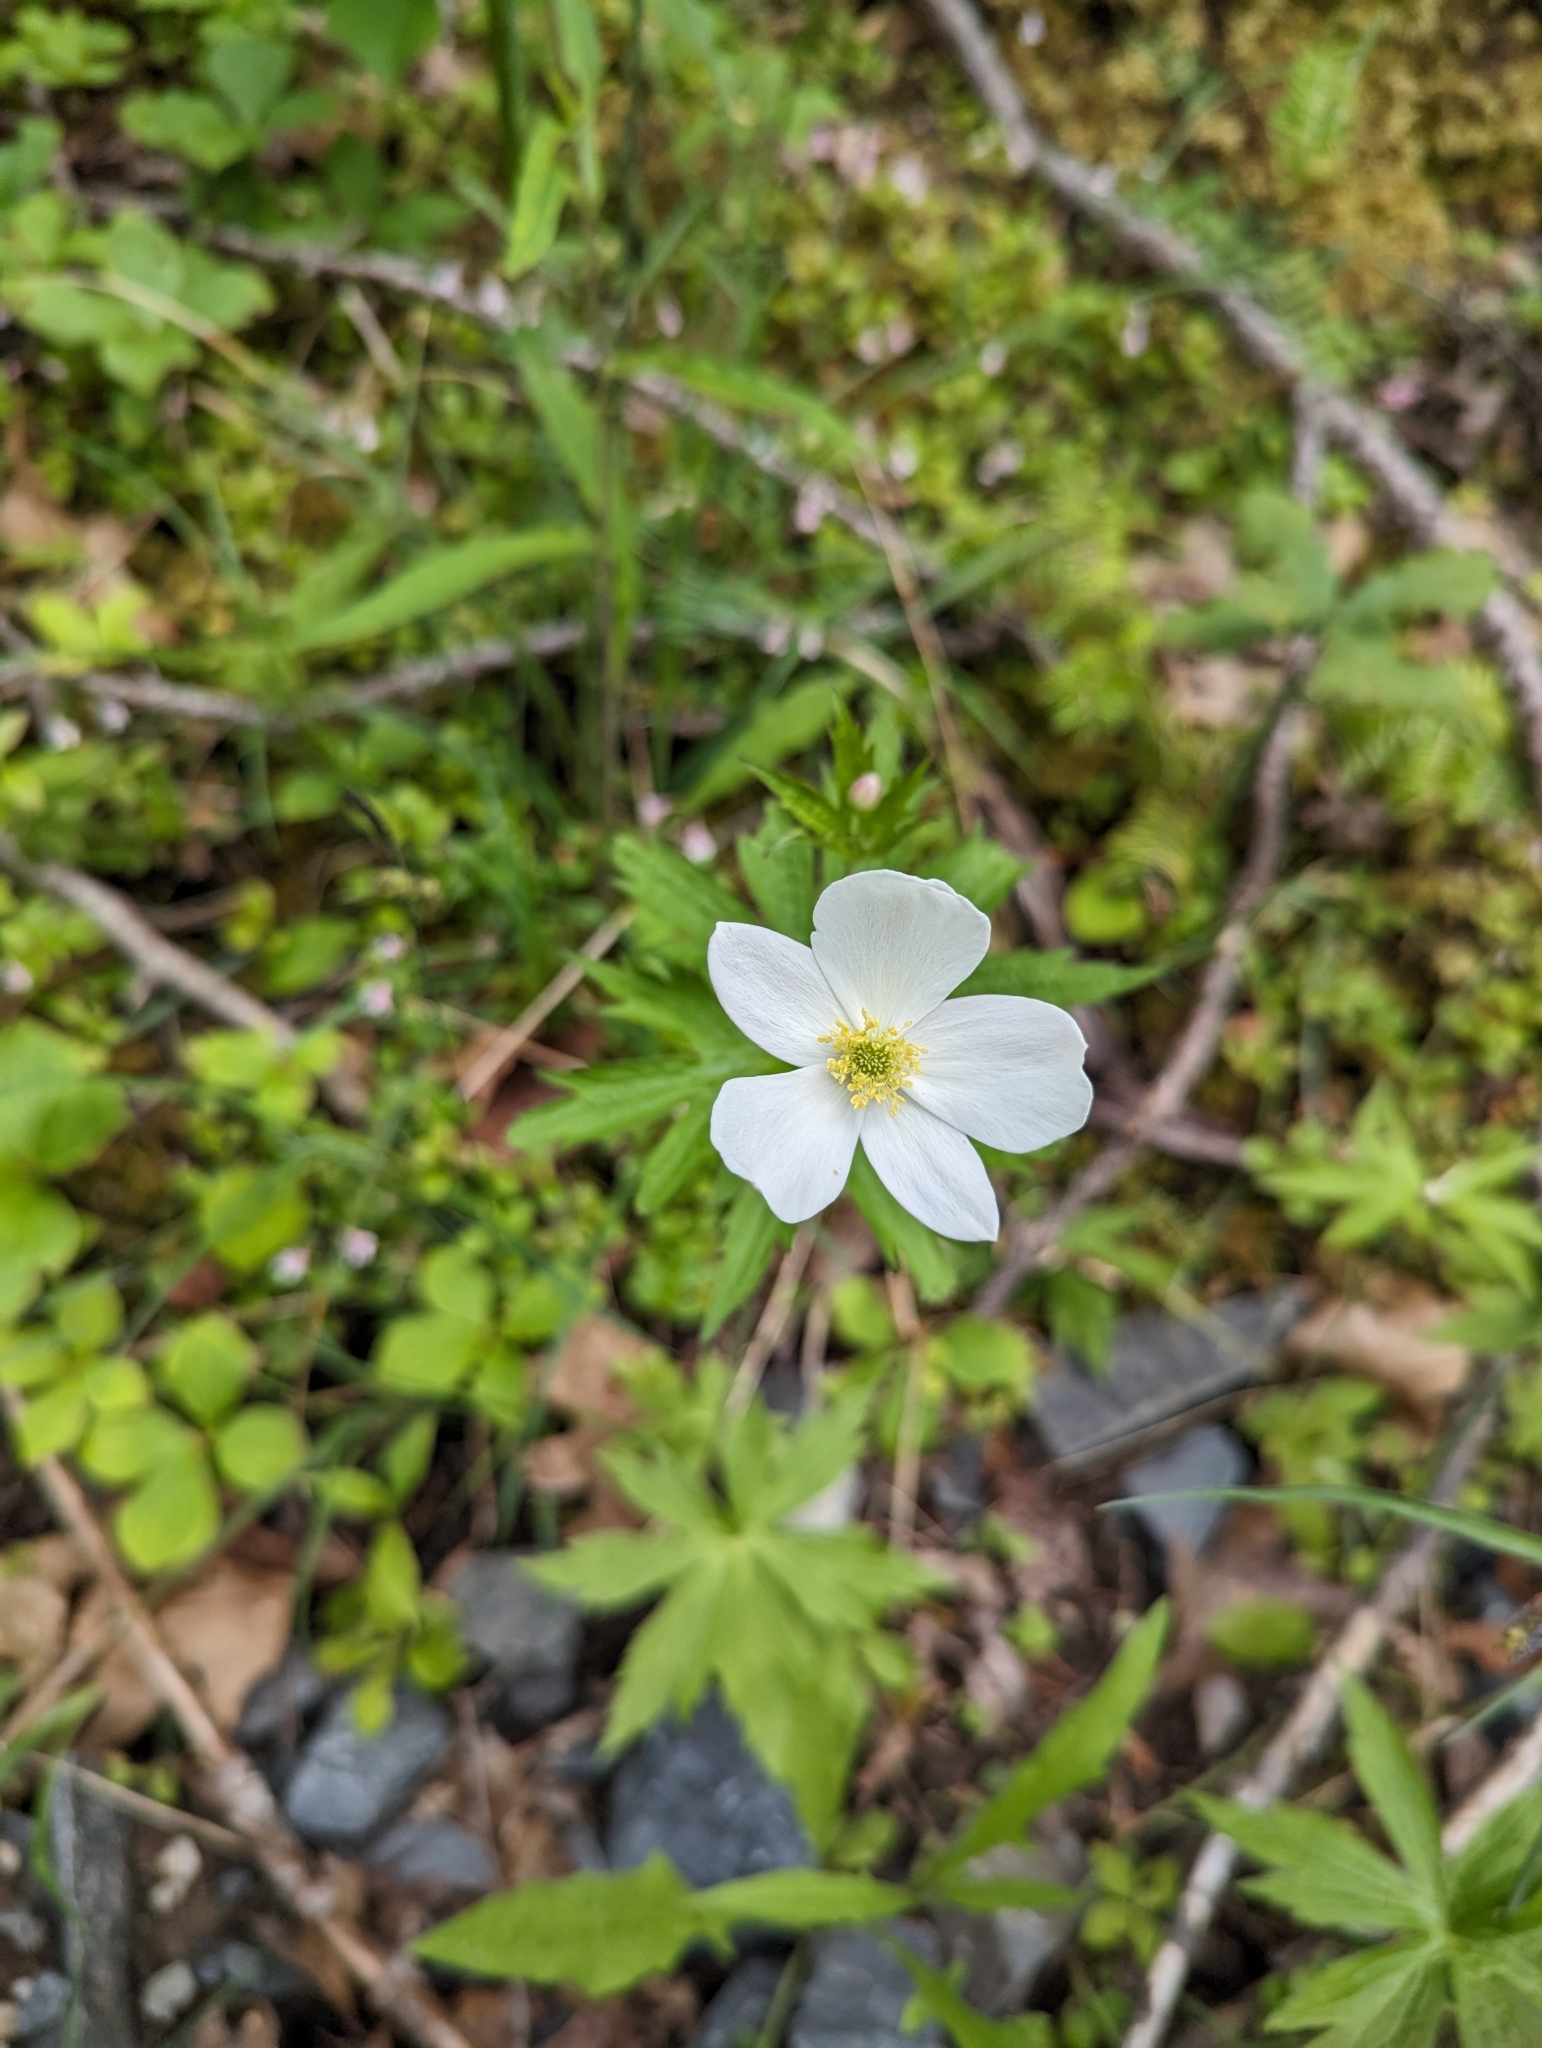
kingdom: Plantae
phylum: Tracheophyta
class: Magnoliopsida
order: Ranunculales
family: Ranunculaceae
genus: Anemonastrum
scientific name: Anemonastrum canadense
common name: Canada anemone
